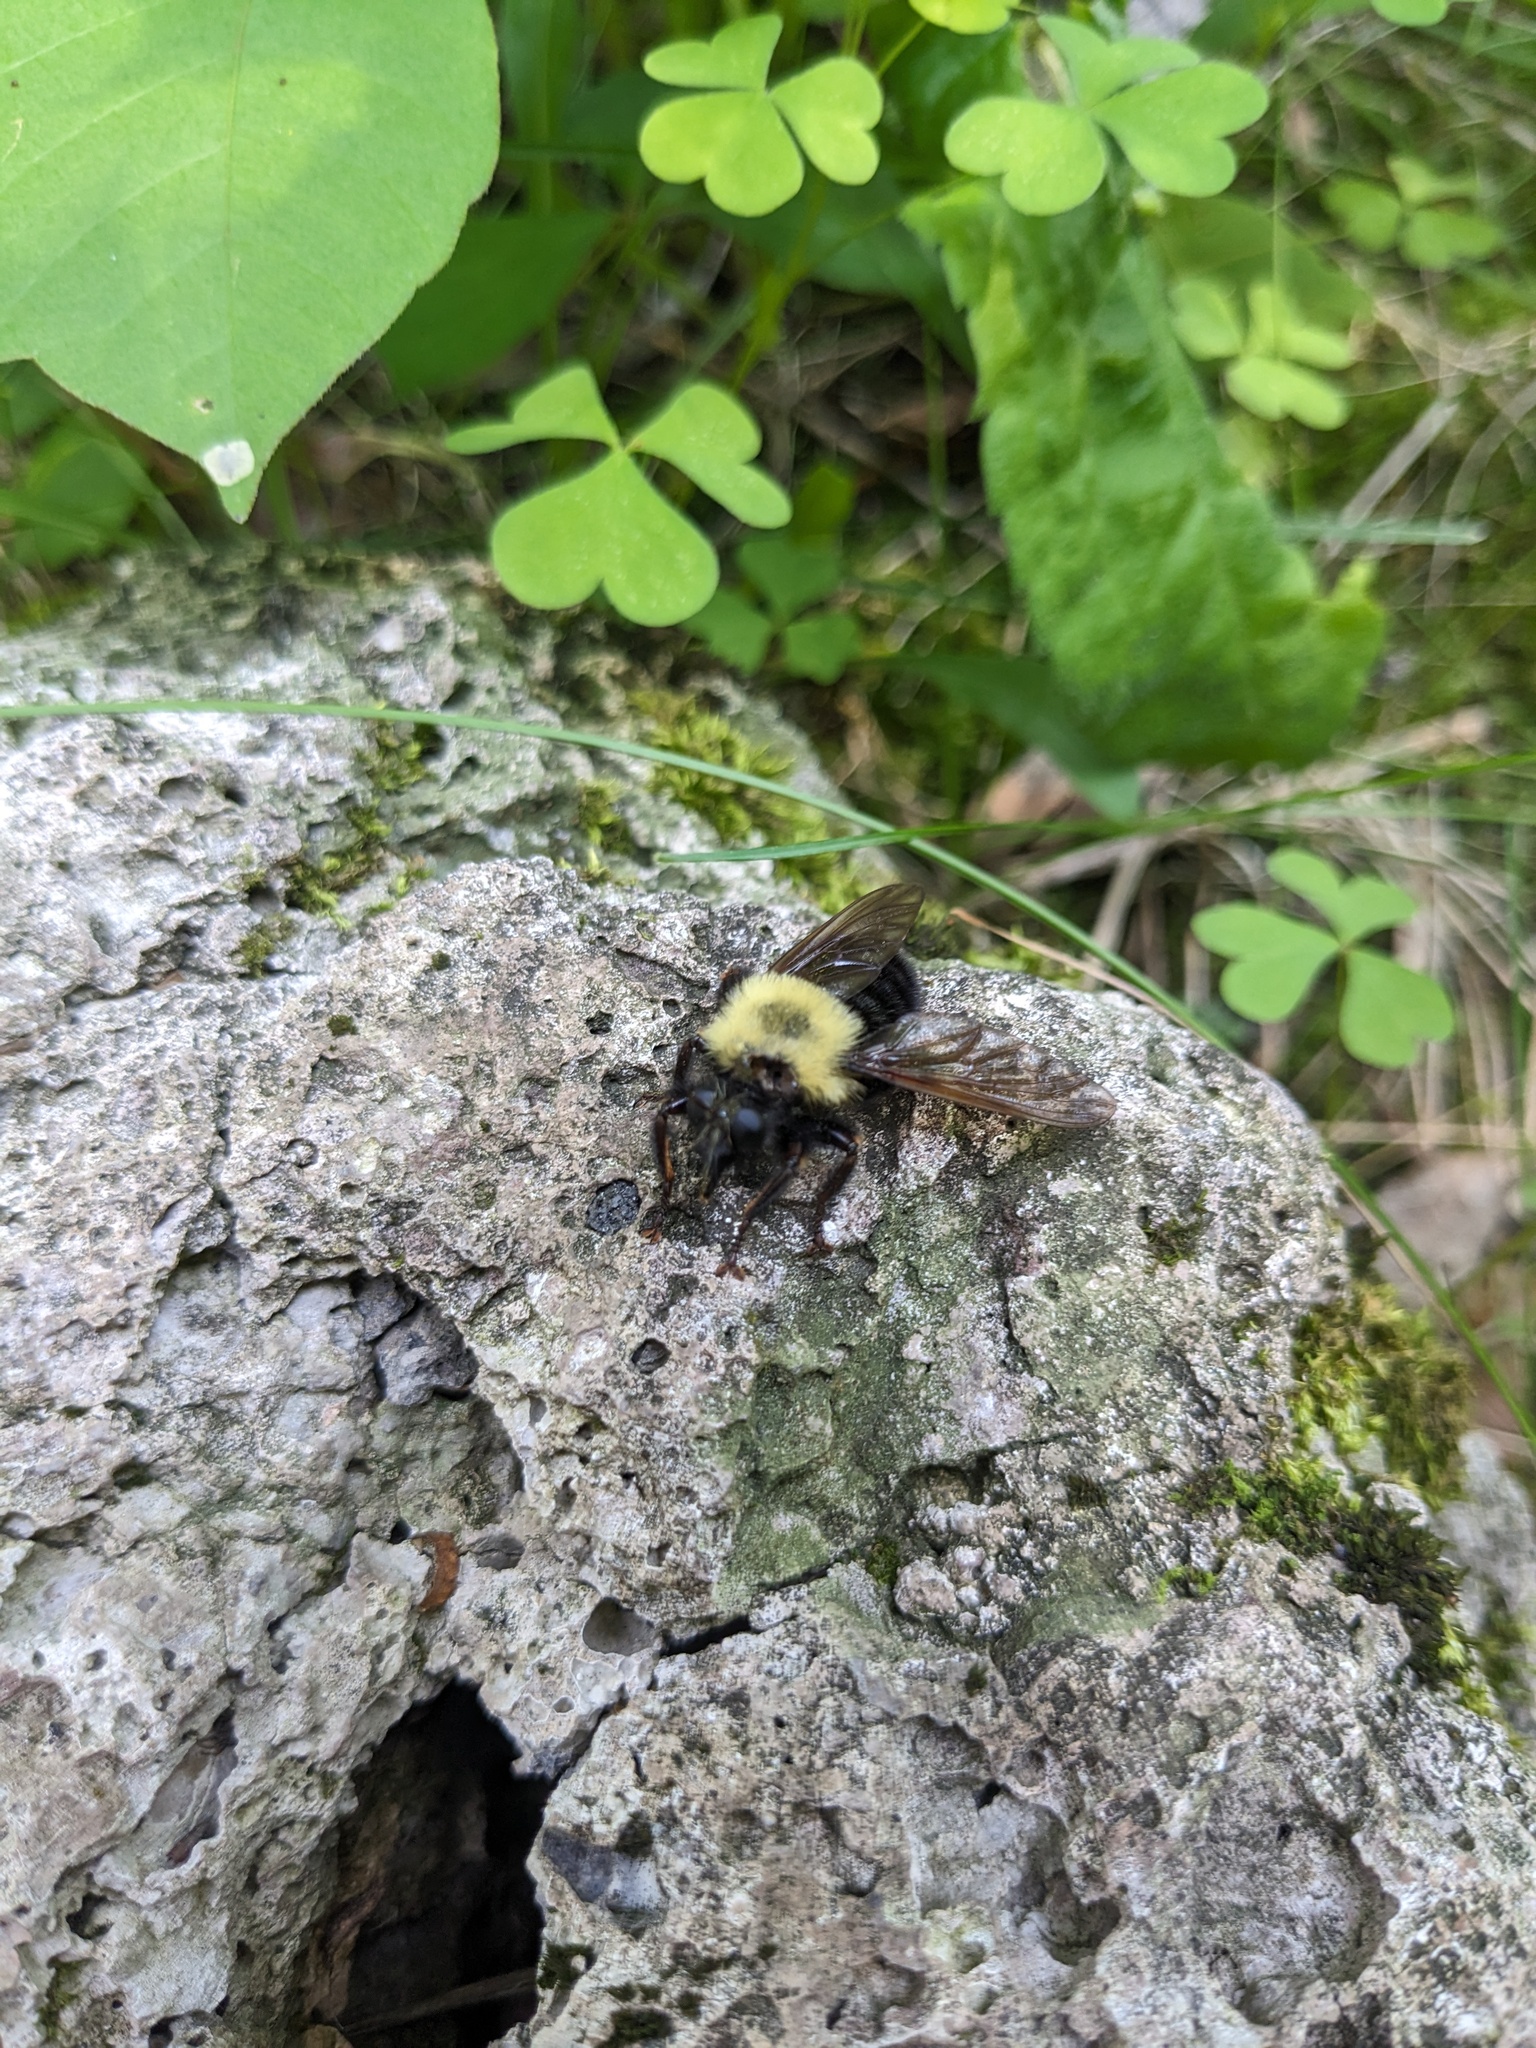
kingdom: Animalia
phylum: Arthropoda
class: Insecta
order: Diptera
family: Asilidae
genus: Laphria
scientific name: Laphria thoracica
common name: Bumble bee mimic robber fly
